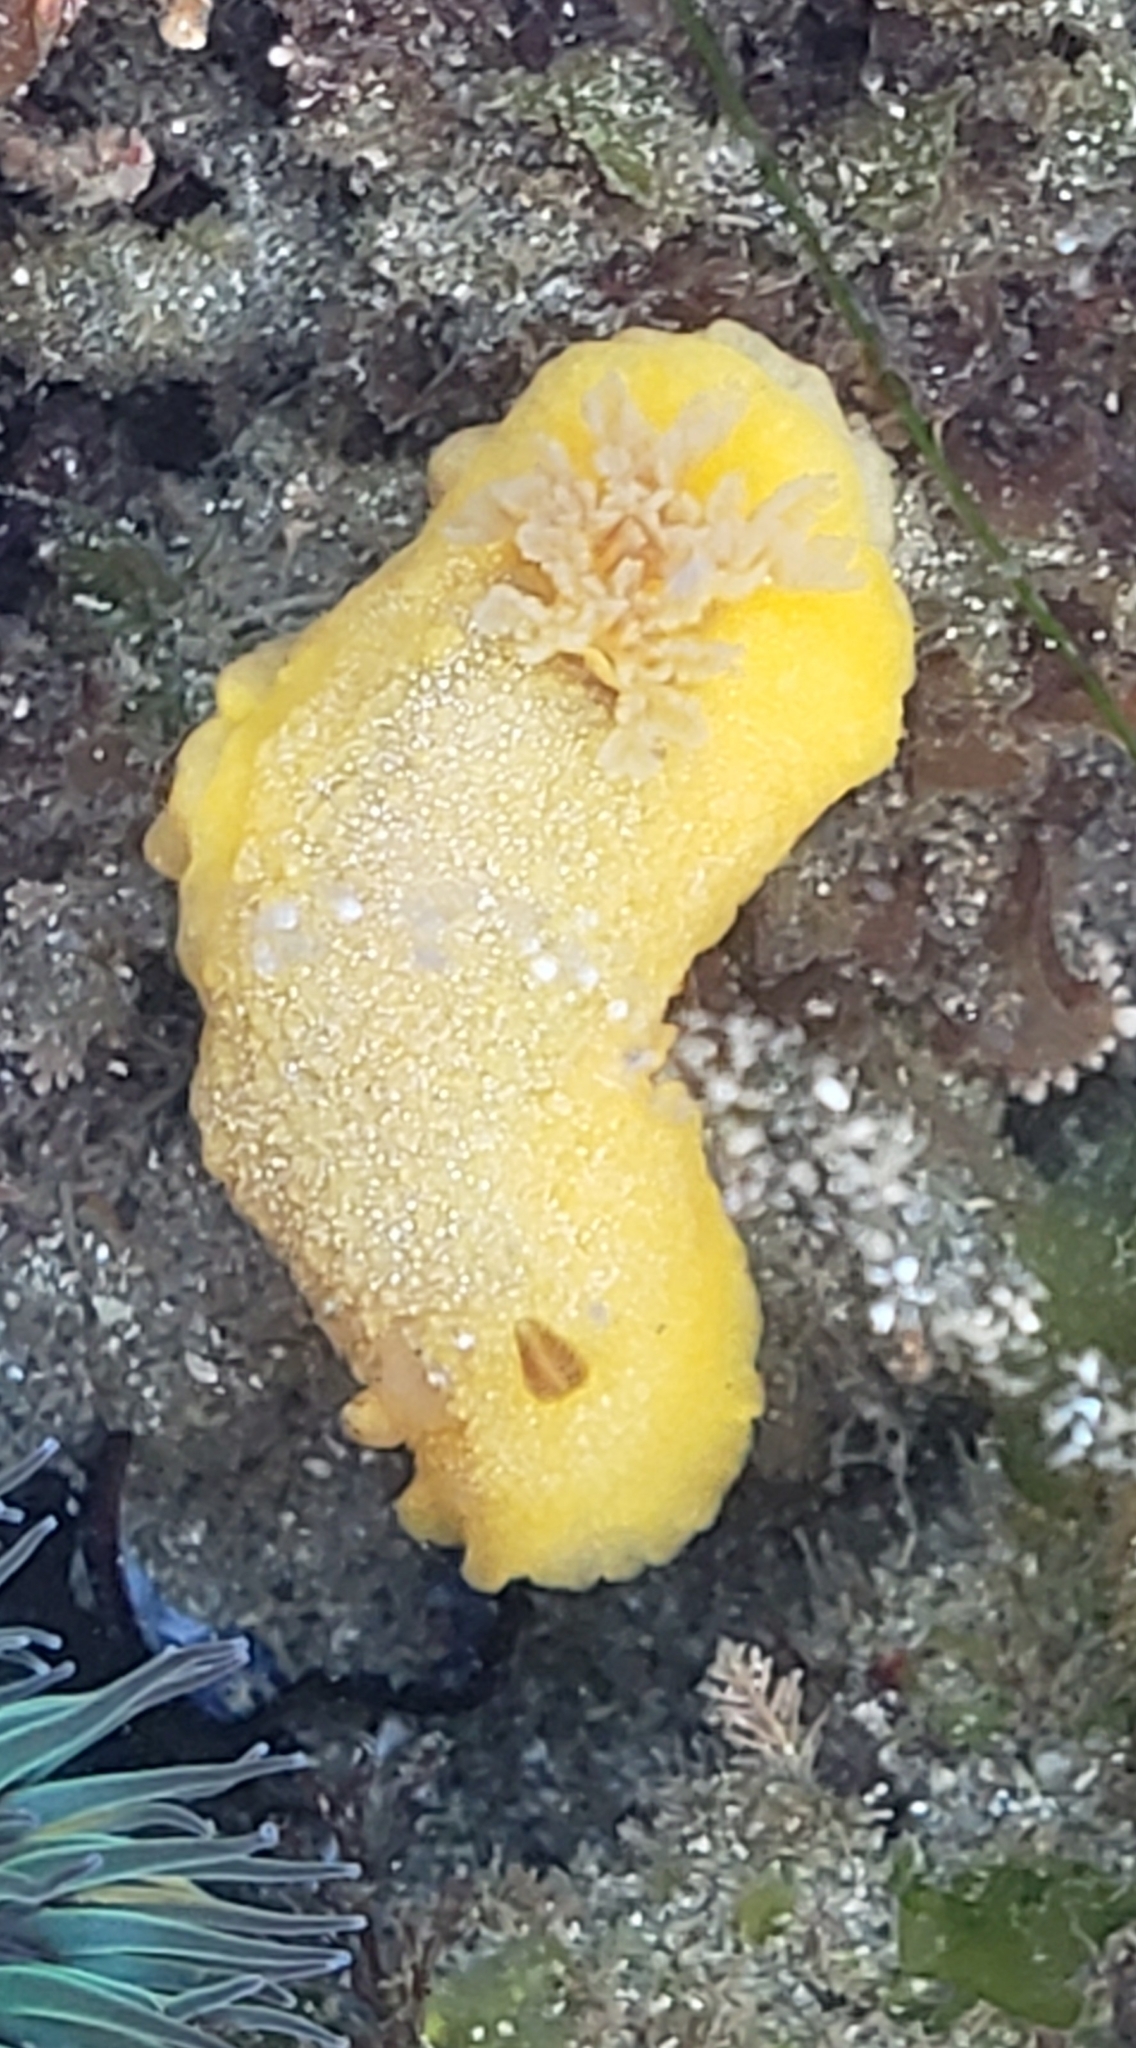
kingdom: Animalia
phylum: Mollusca
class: Gastropoda
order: Nudibranchia
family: Dendrodorididae
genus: Doriopsilla
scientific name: Doriopsilla albopunctata
